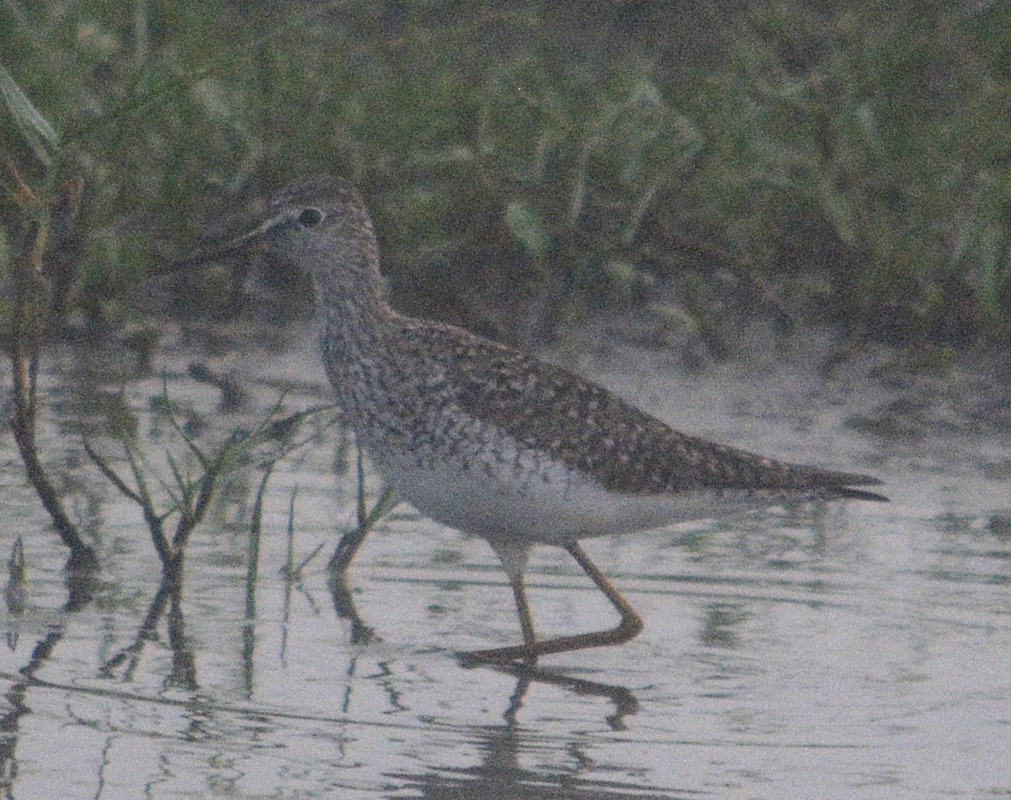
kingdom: Animalia
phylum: Chordata
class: Aves
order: Charadriiformes
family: Scolopacidae
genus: Tringa
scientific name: Tringa flavipes
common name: Lesser yellowlegs
